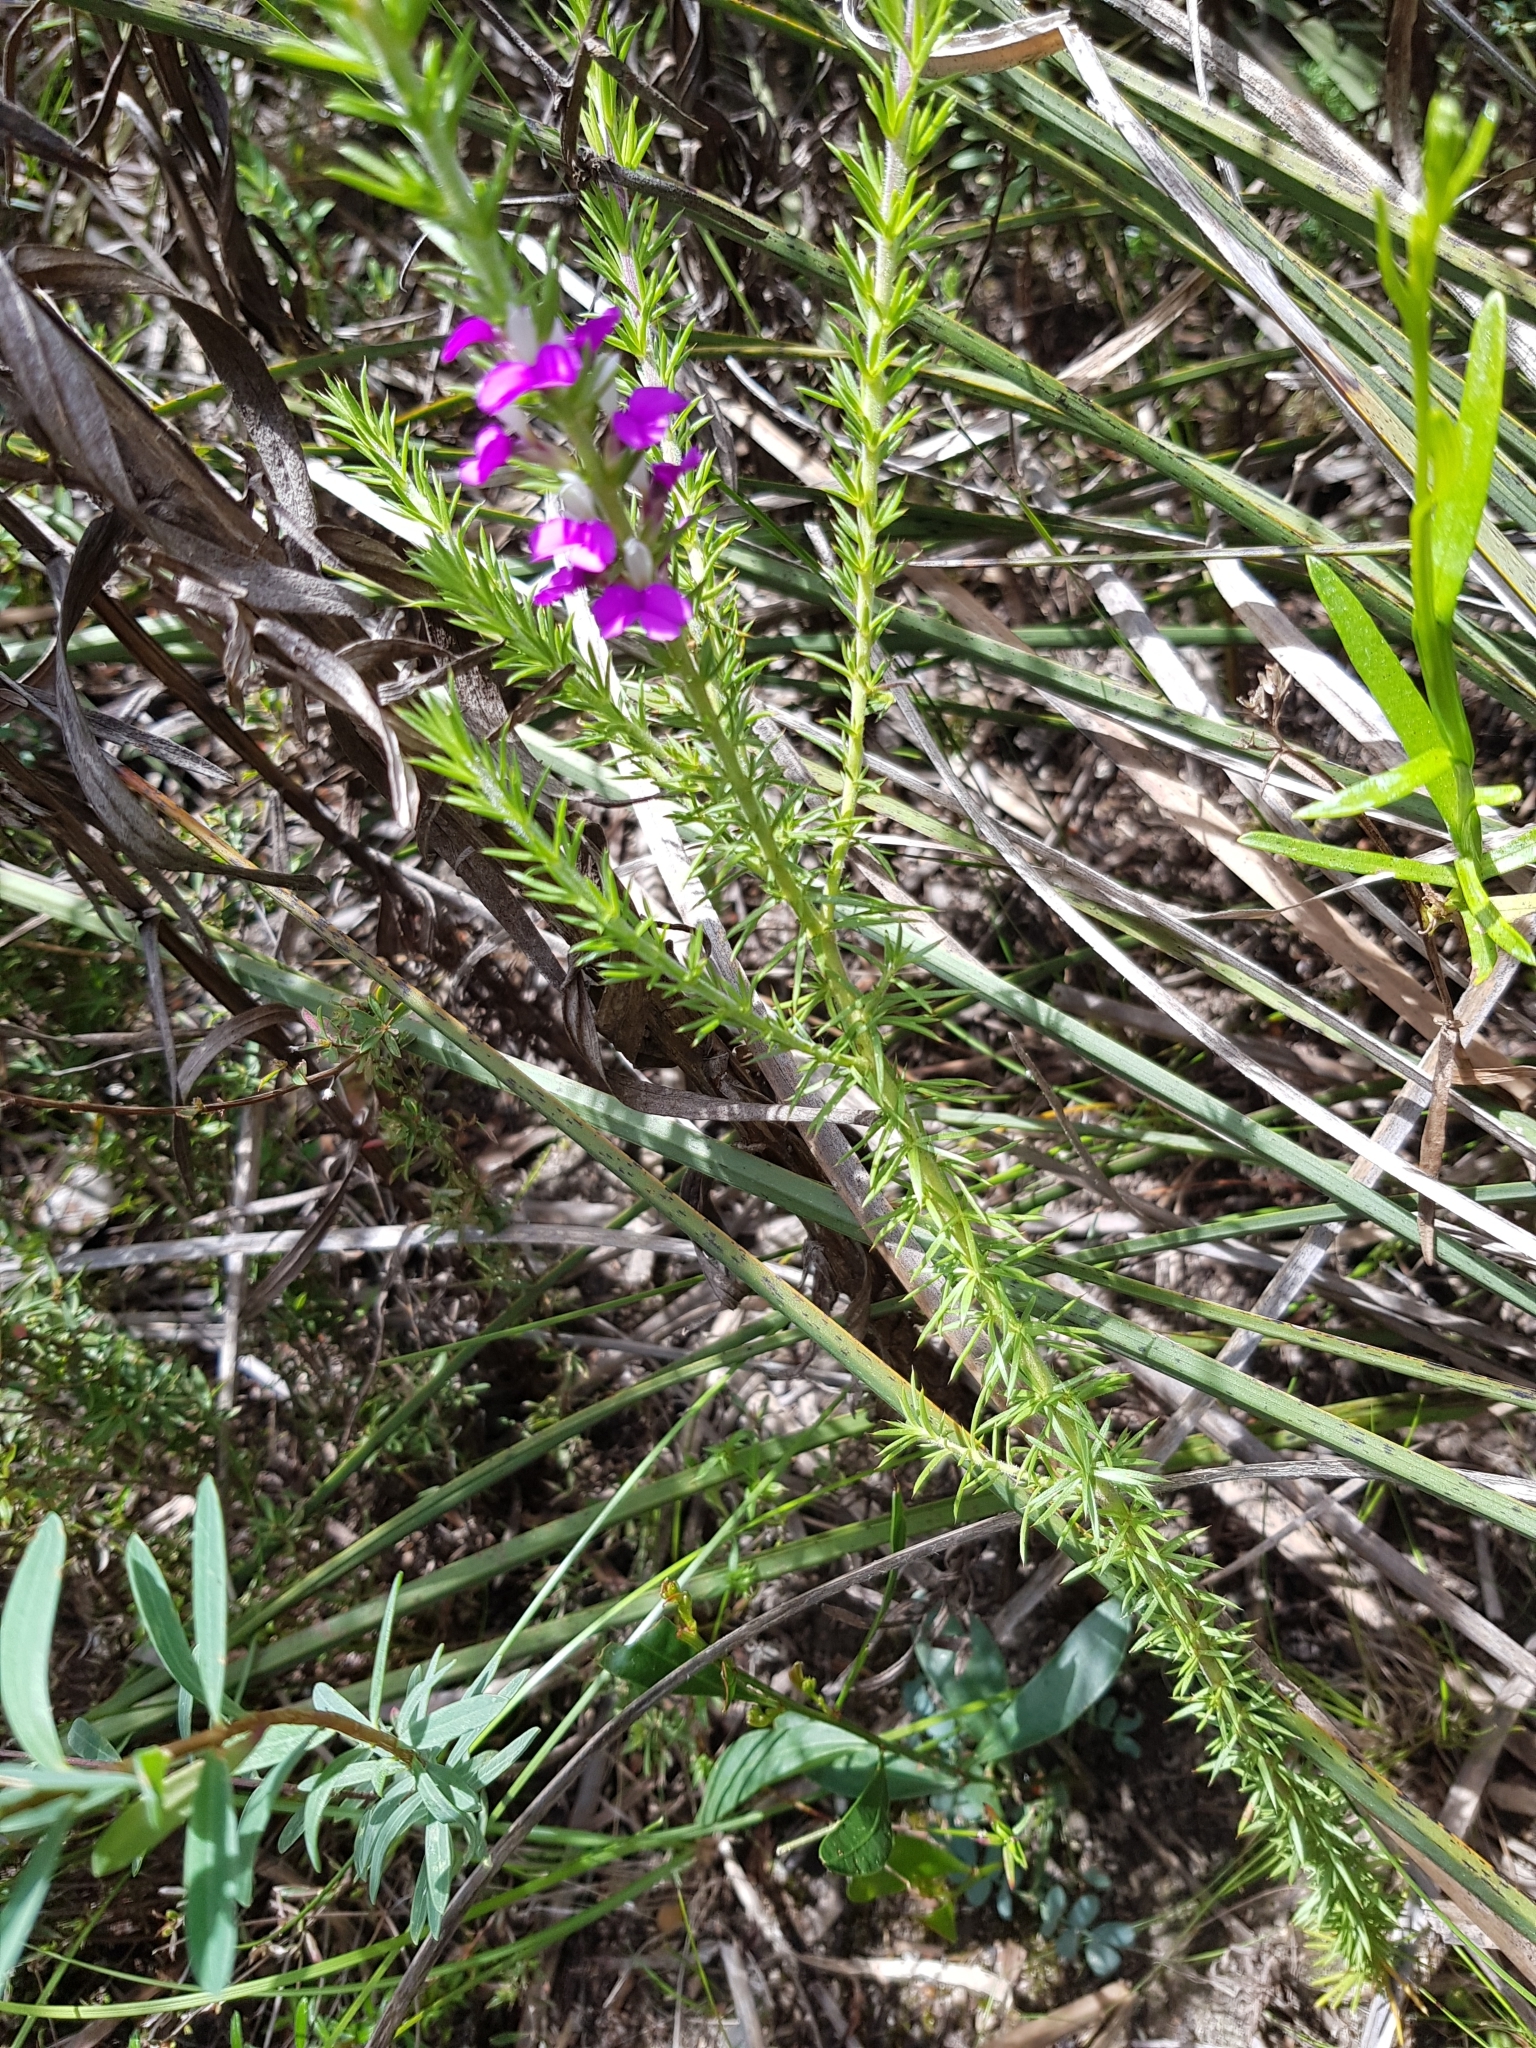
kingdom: Plantae
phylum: Tracheophyta
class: Magnoliopsida
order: Fabales
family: Polygalaceae
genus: Muraltia
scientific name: Muraltia heisteria
